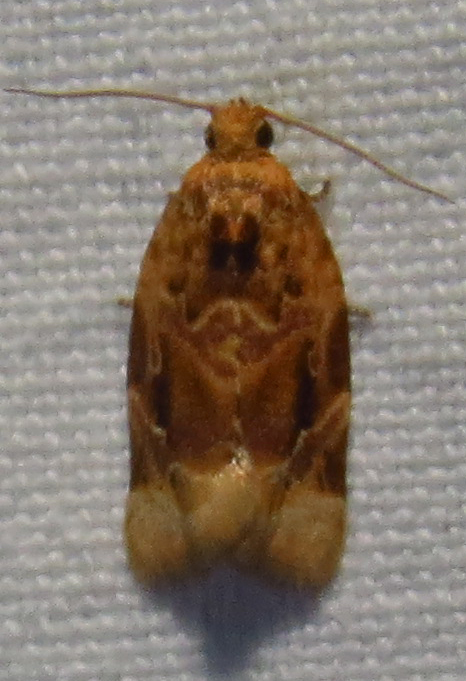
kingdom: Animalia
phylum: Arthropoda
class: Insecta
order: Lepidoptera
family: Tortricidae
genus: Argyrotaenia
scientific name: Argyrotaenia velutinana
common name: Red-banded leafroller moth
